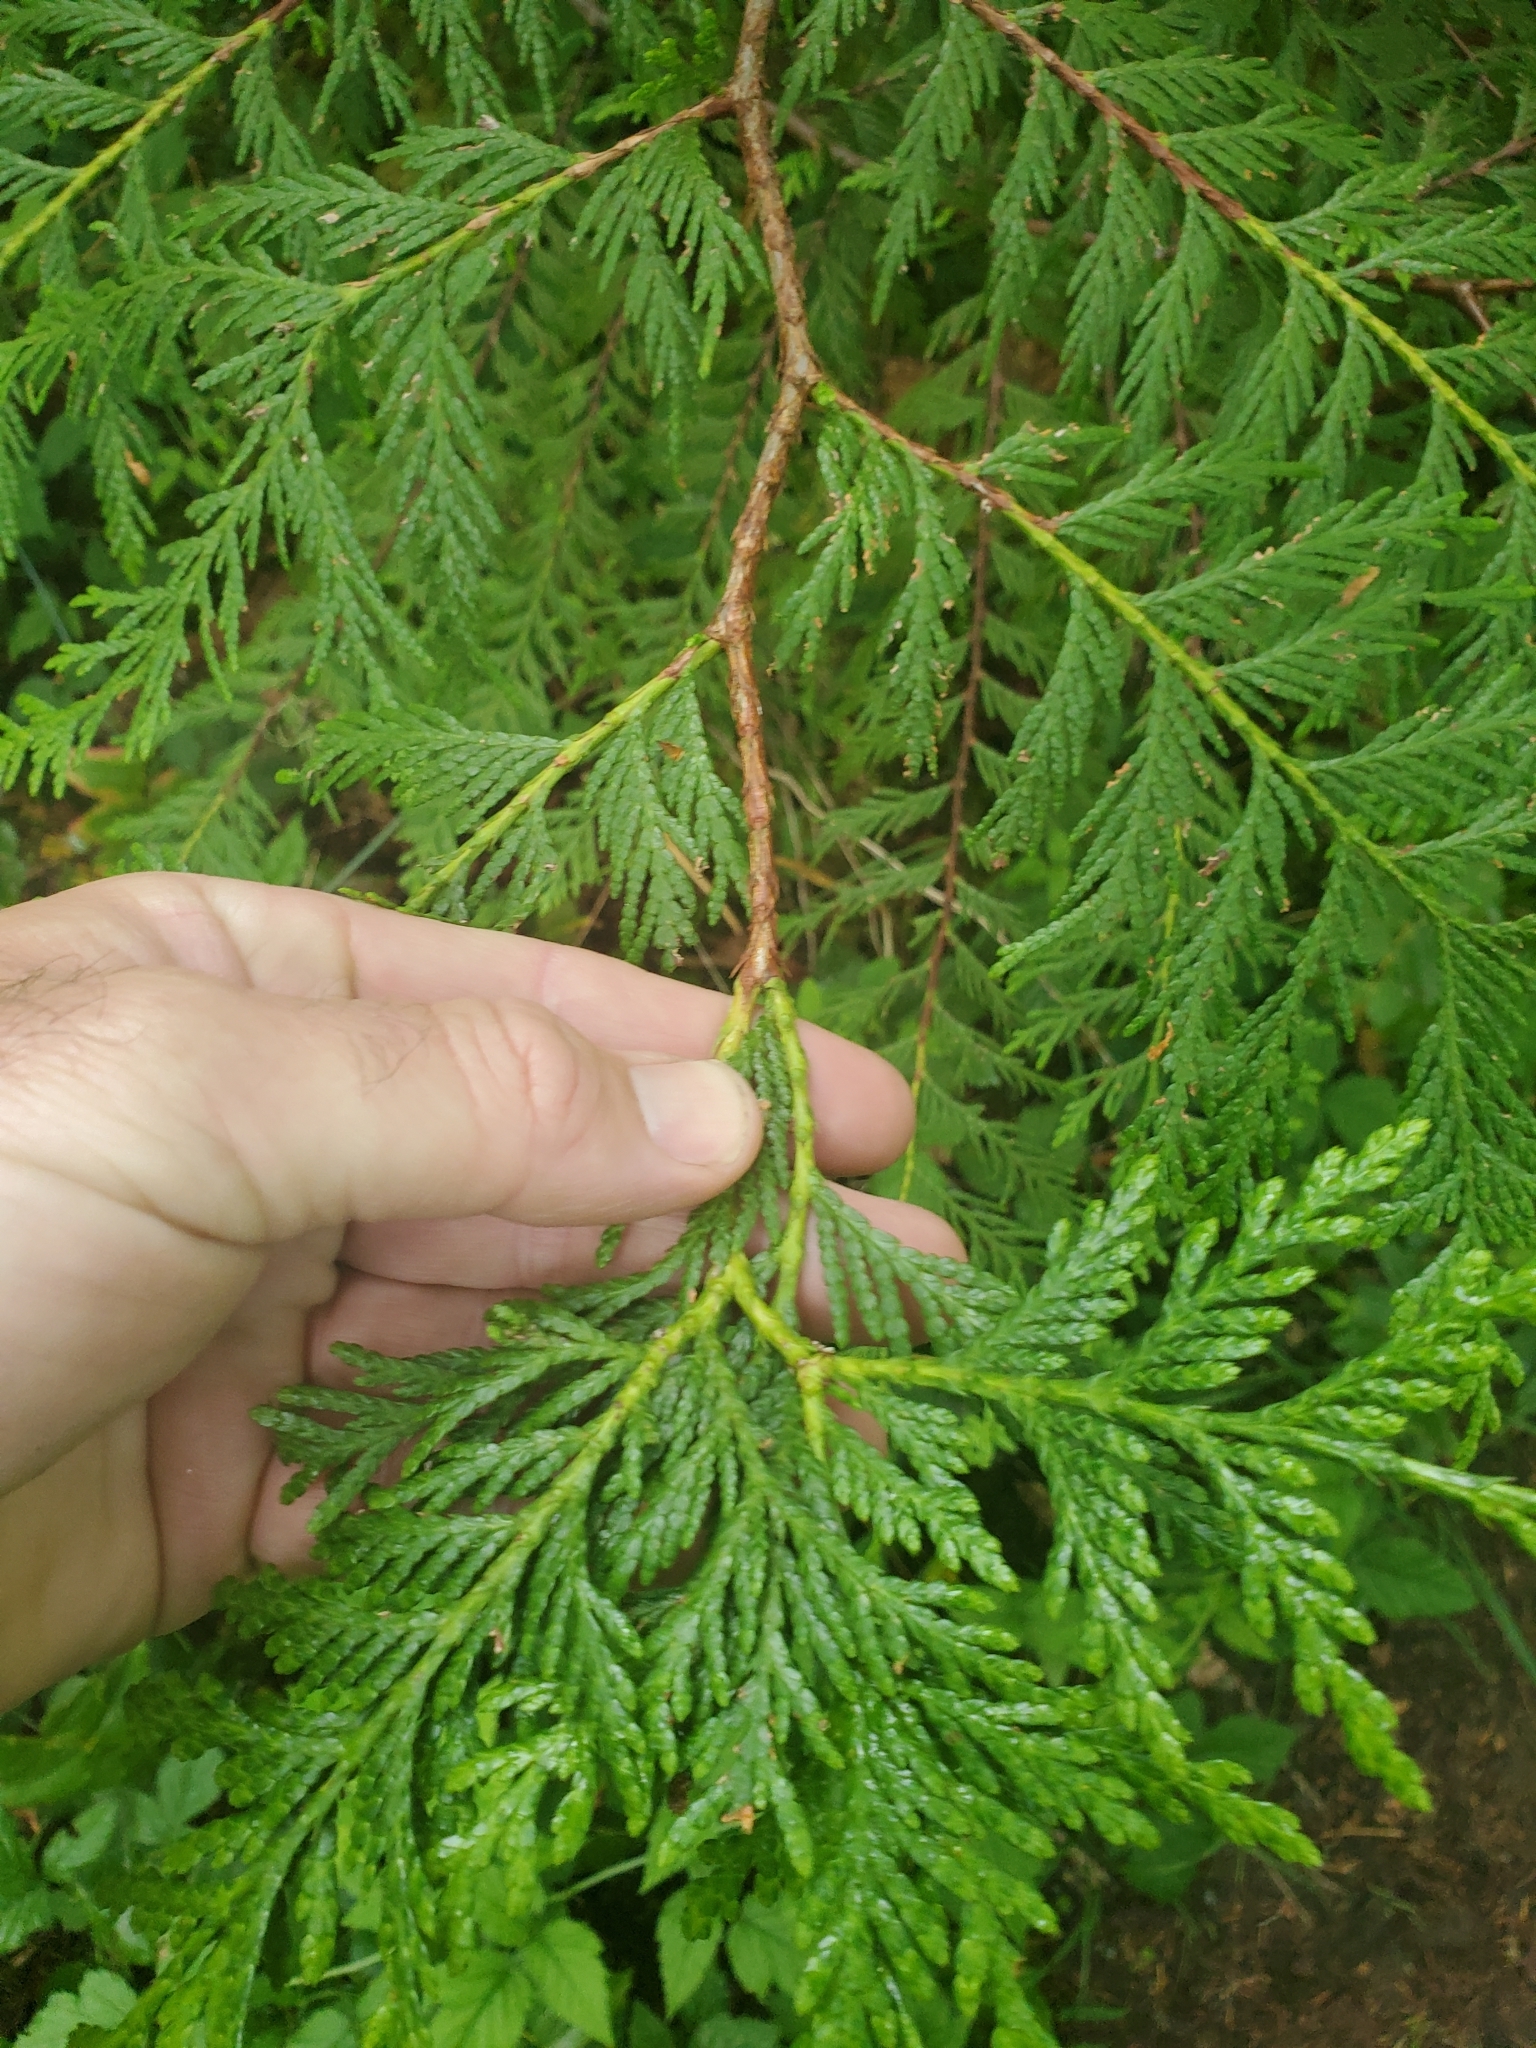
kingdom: Plantae
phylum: Tracheophyta
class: Pinopsida
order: Pinales
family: Cupressaceae
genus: Thuja
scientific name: Thuja plicata
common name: Western red-cedar
